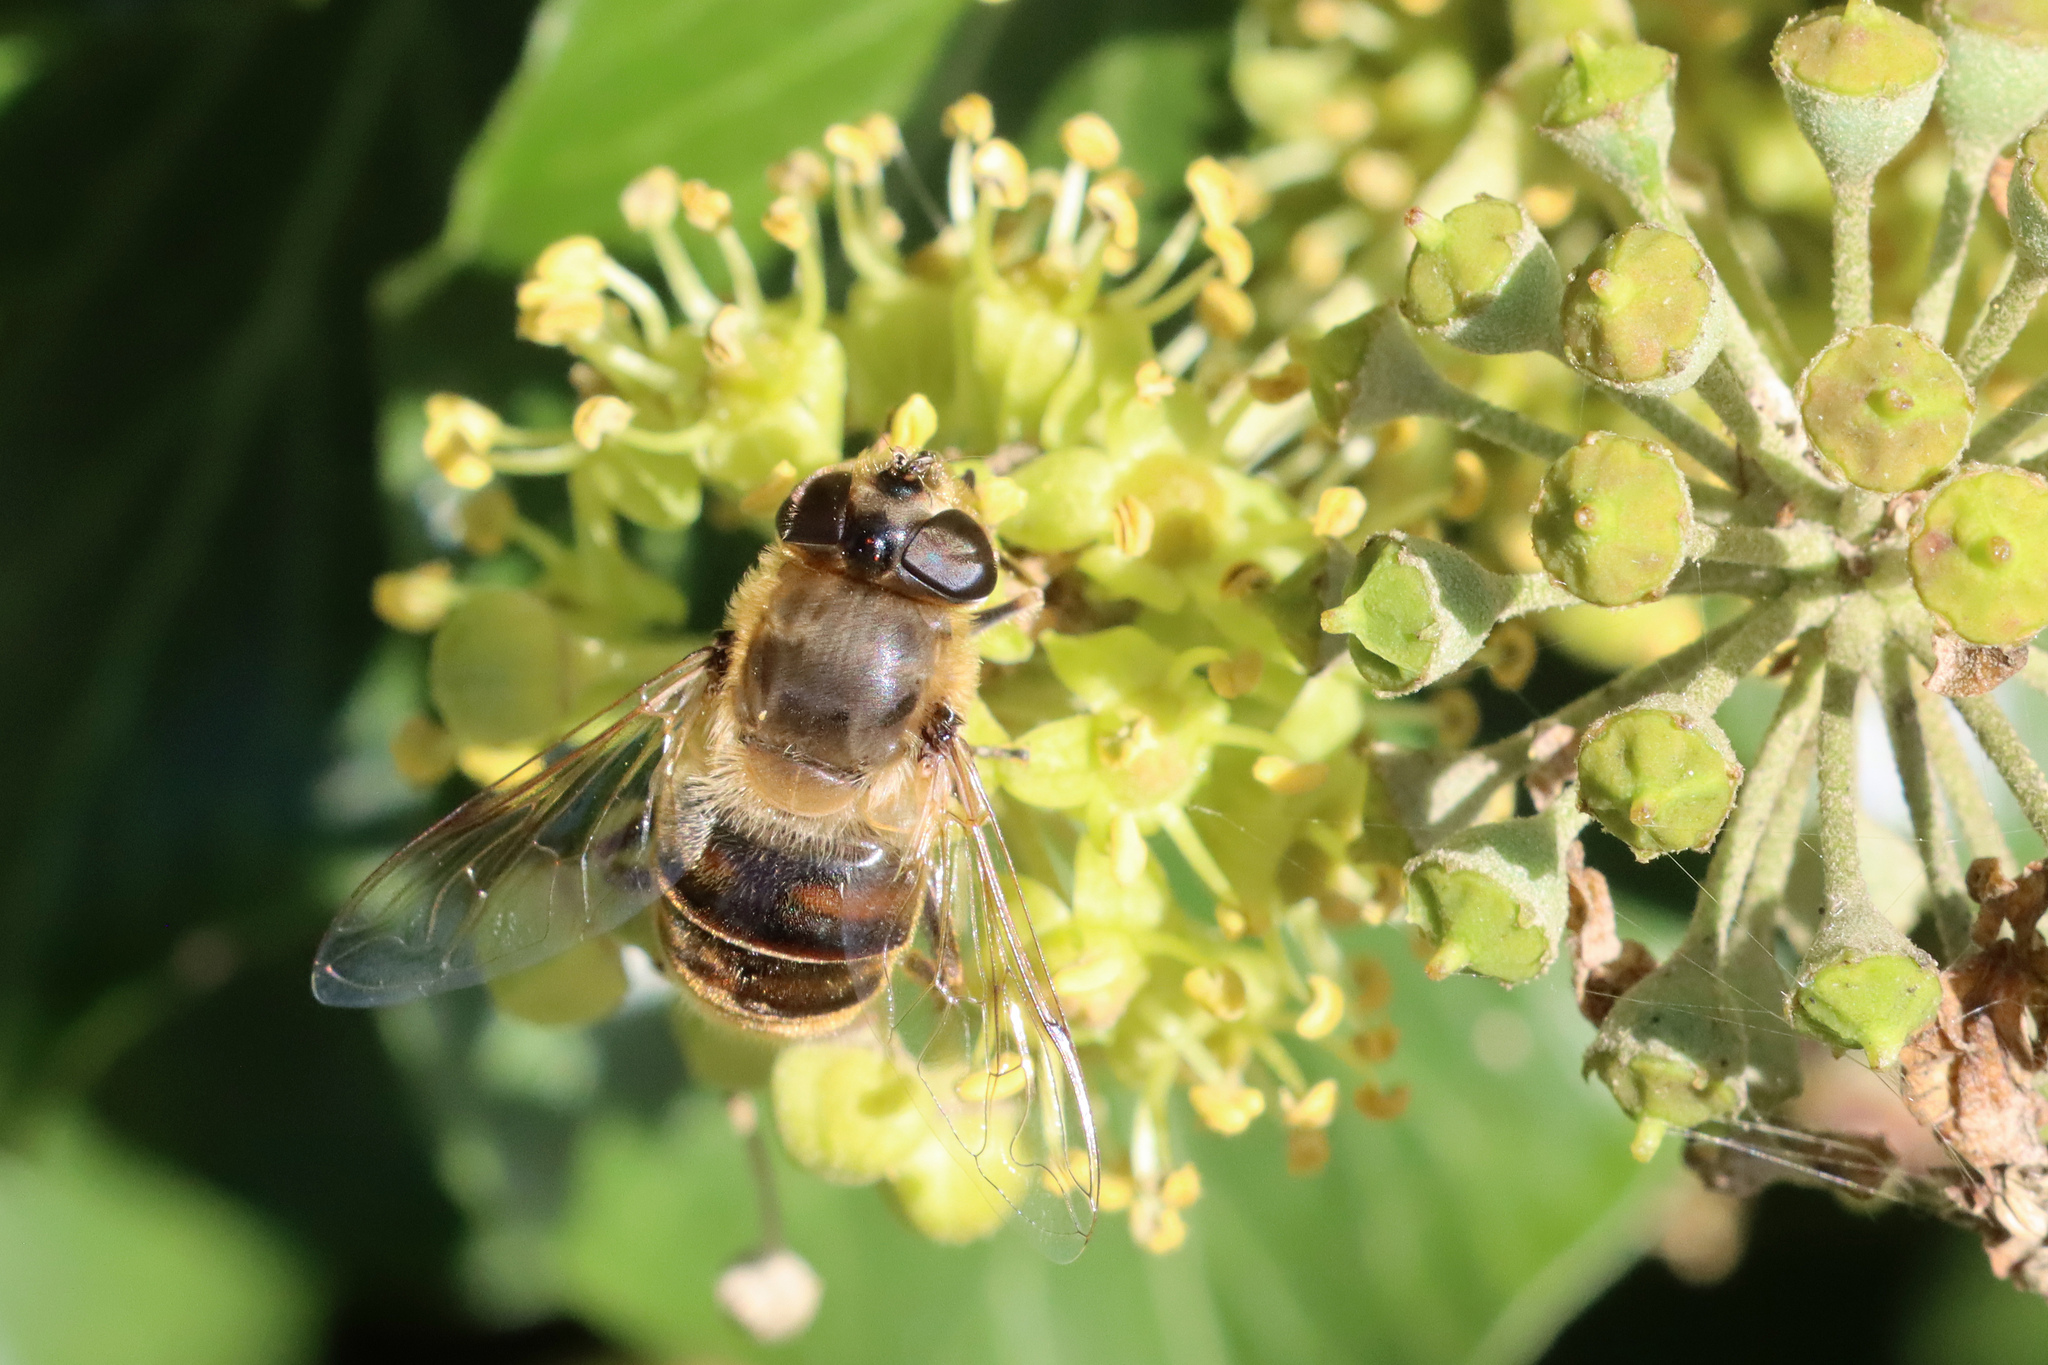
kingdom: Animalia
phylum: Arthropoda
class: Insecta
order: Diptera
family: Syrphidae
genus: Eristalis
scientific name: Eristalis tenax
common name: Drone fly
